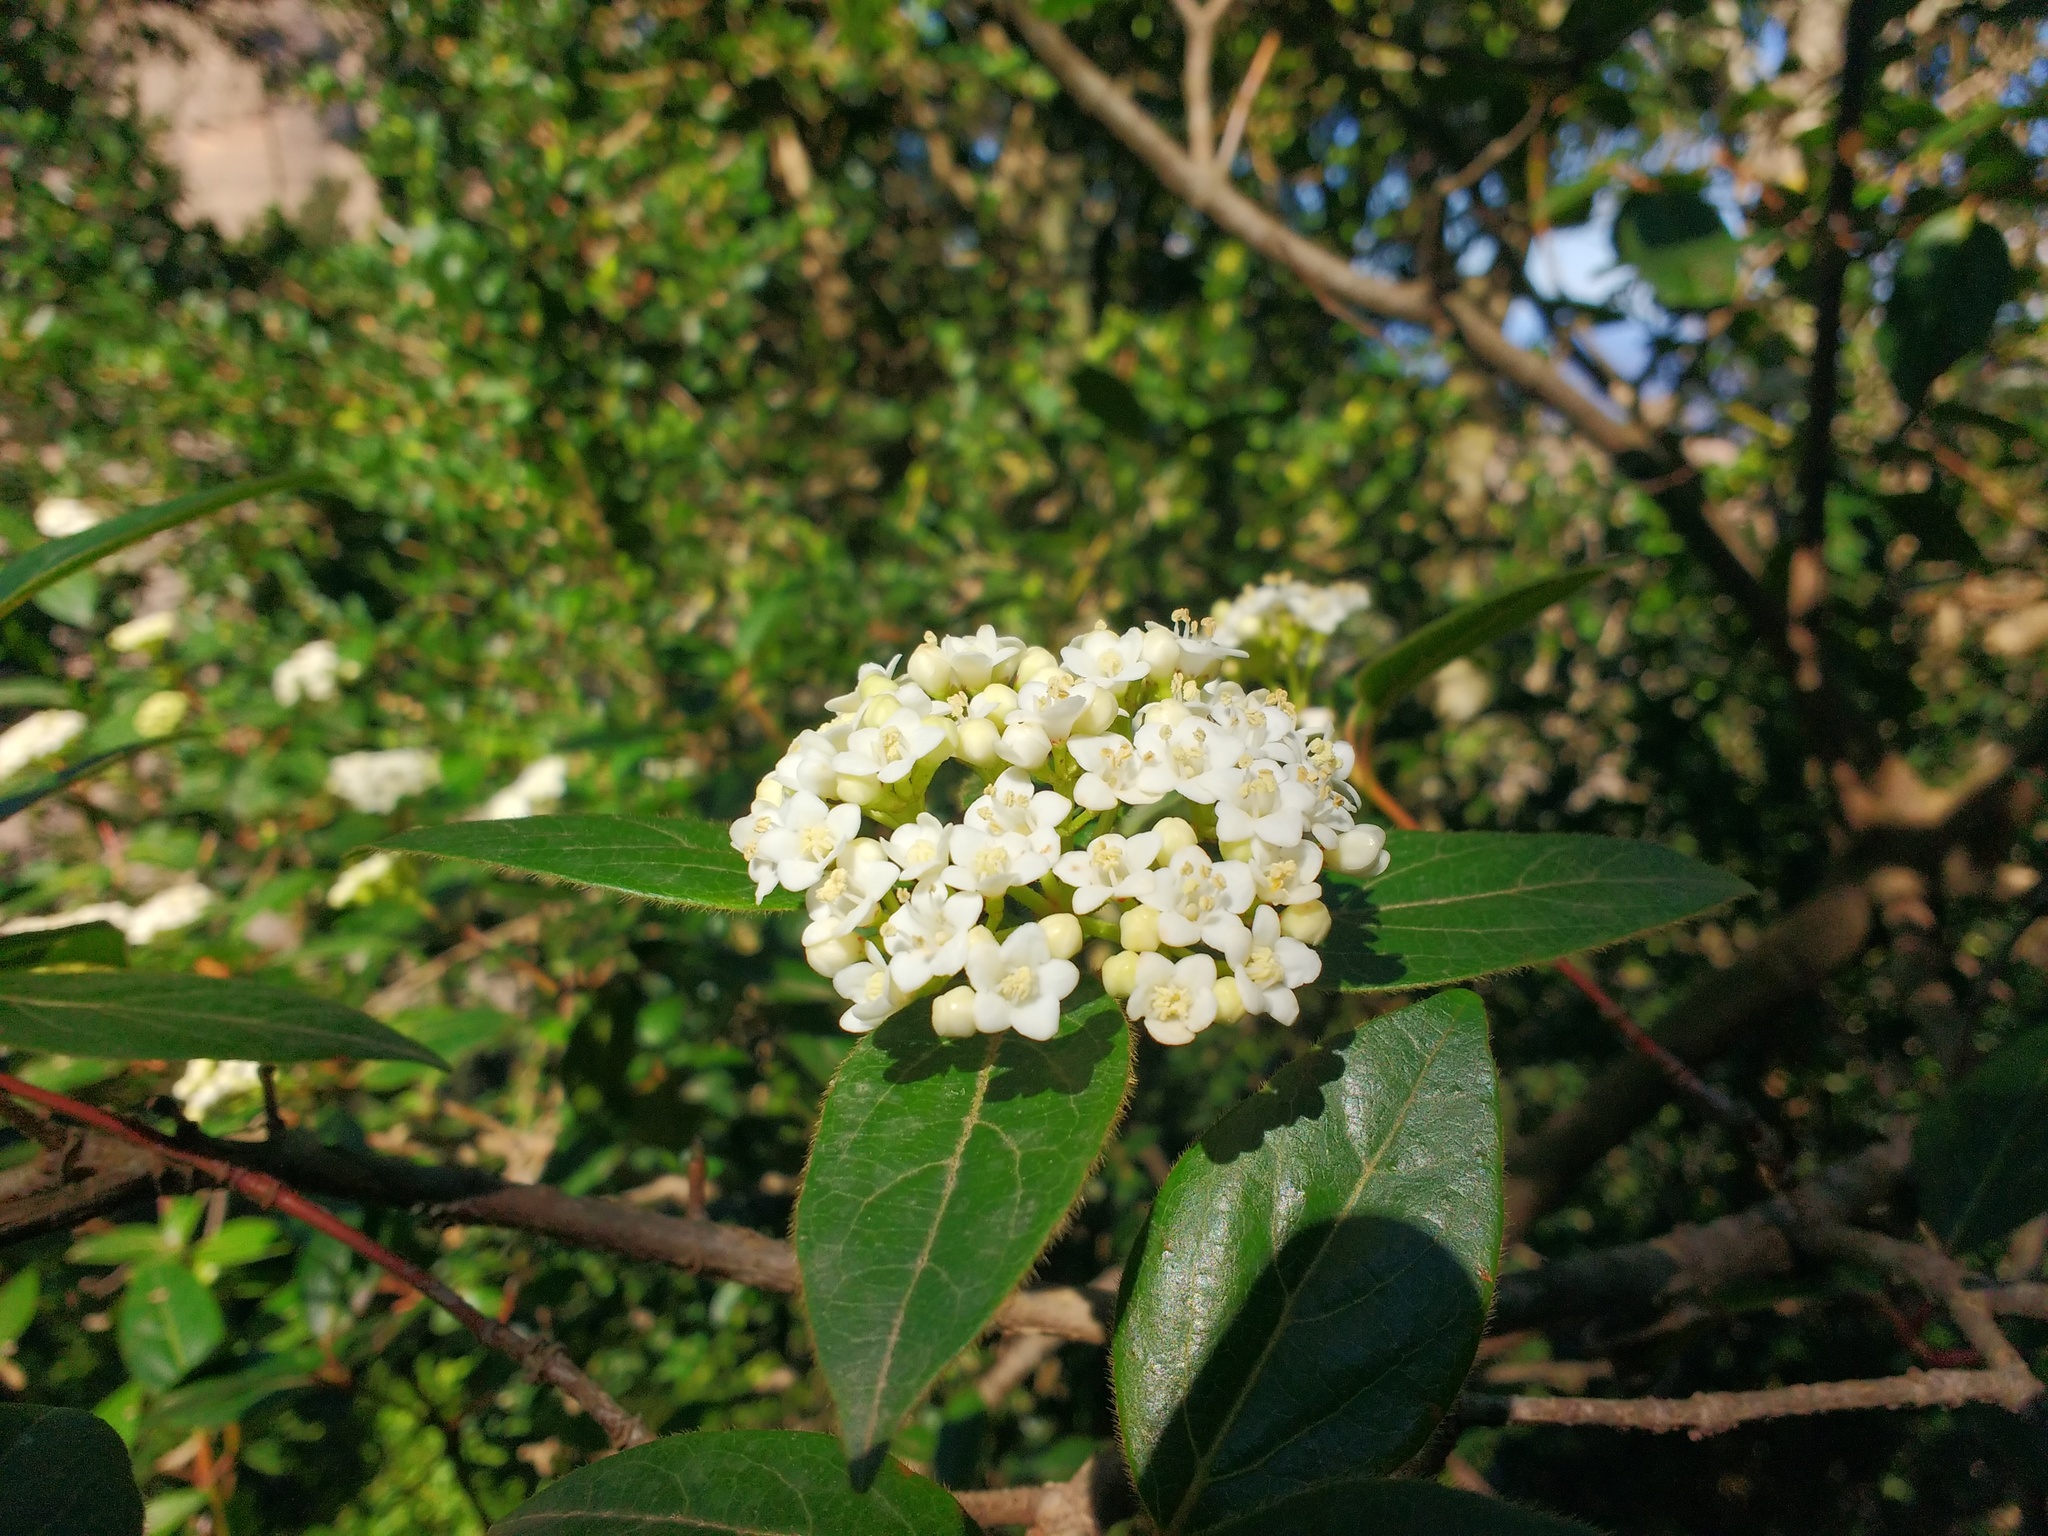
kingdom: Plantae
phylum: Tracheophyta
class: Magnoliopsida
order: Dipsacales
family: Viburnaceae
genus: Viburnum
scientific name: Viburnum tinus
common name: Laurustinus
